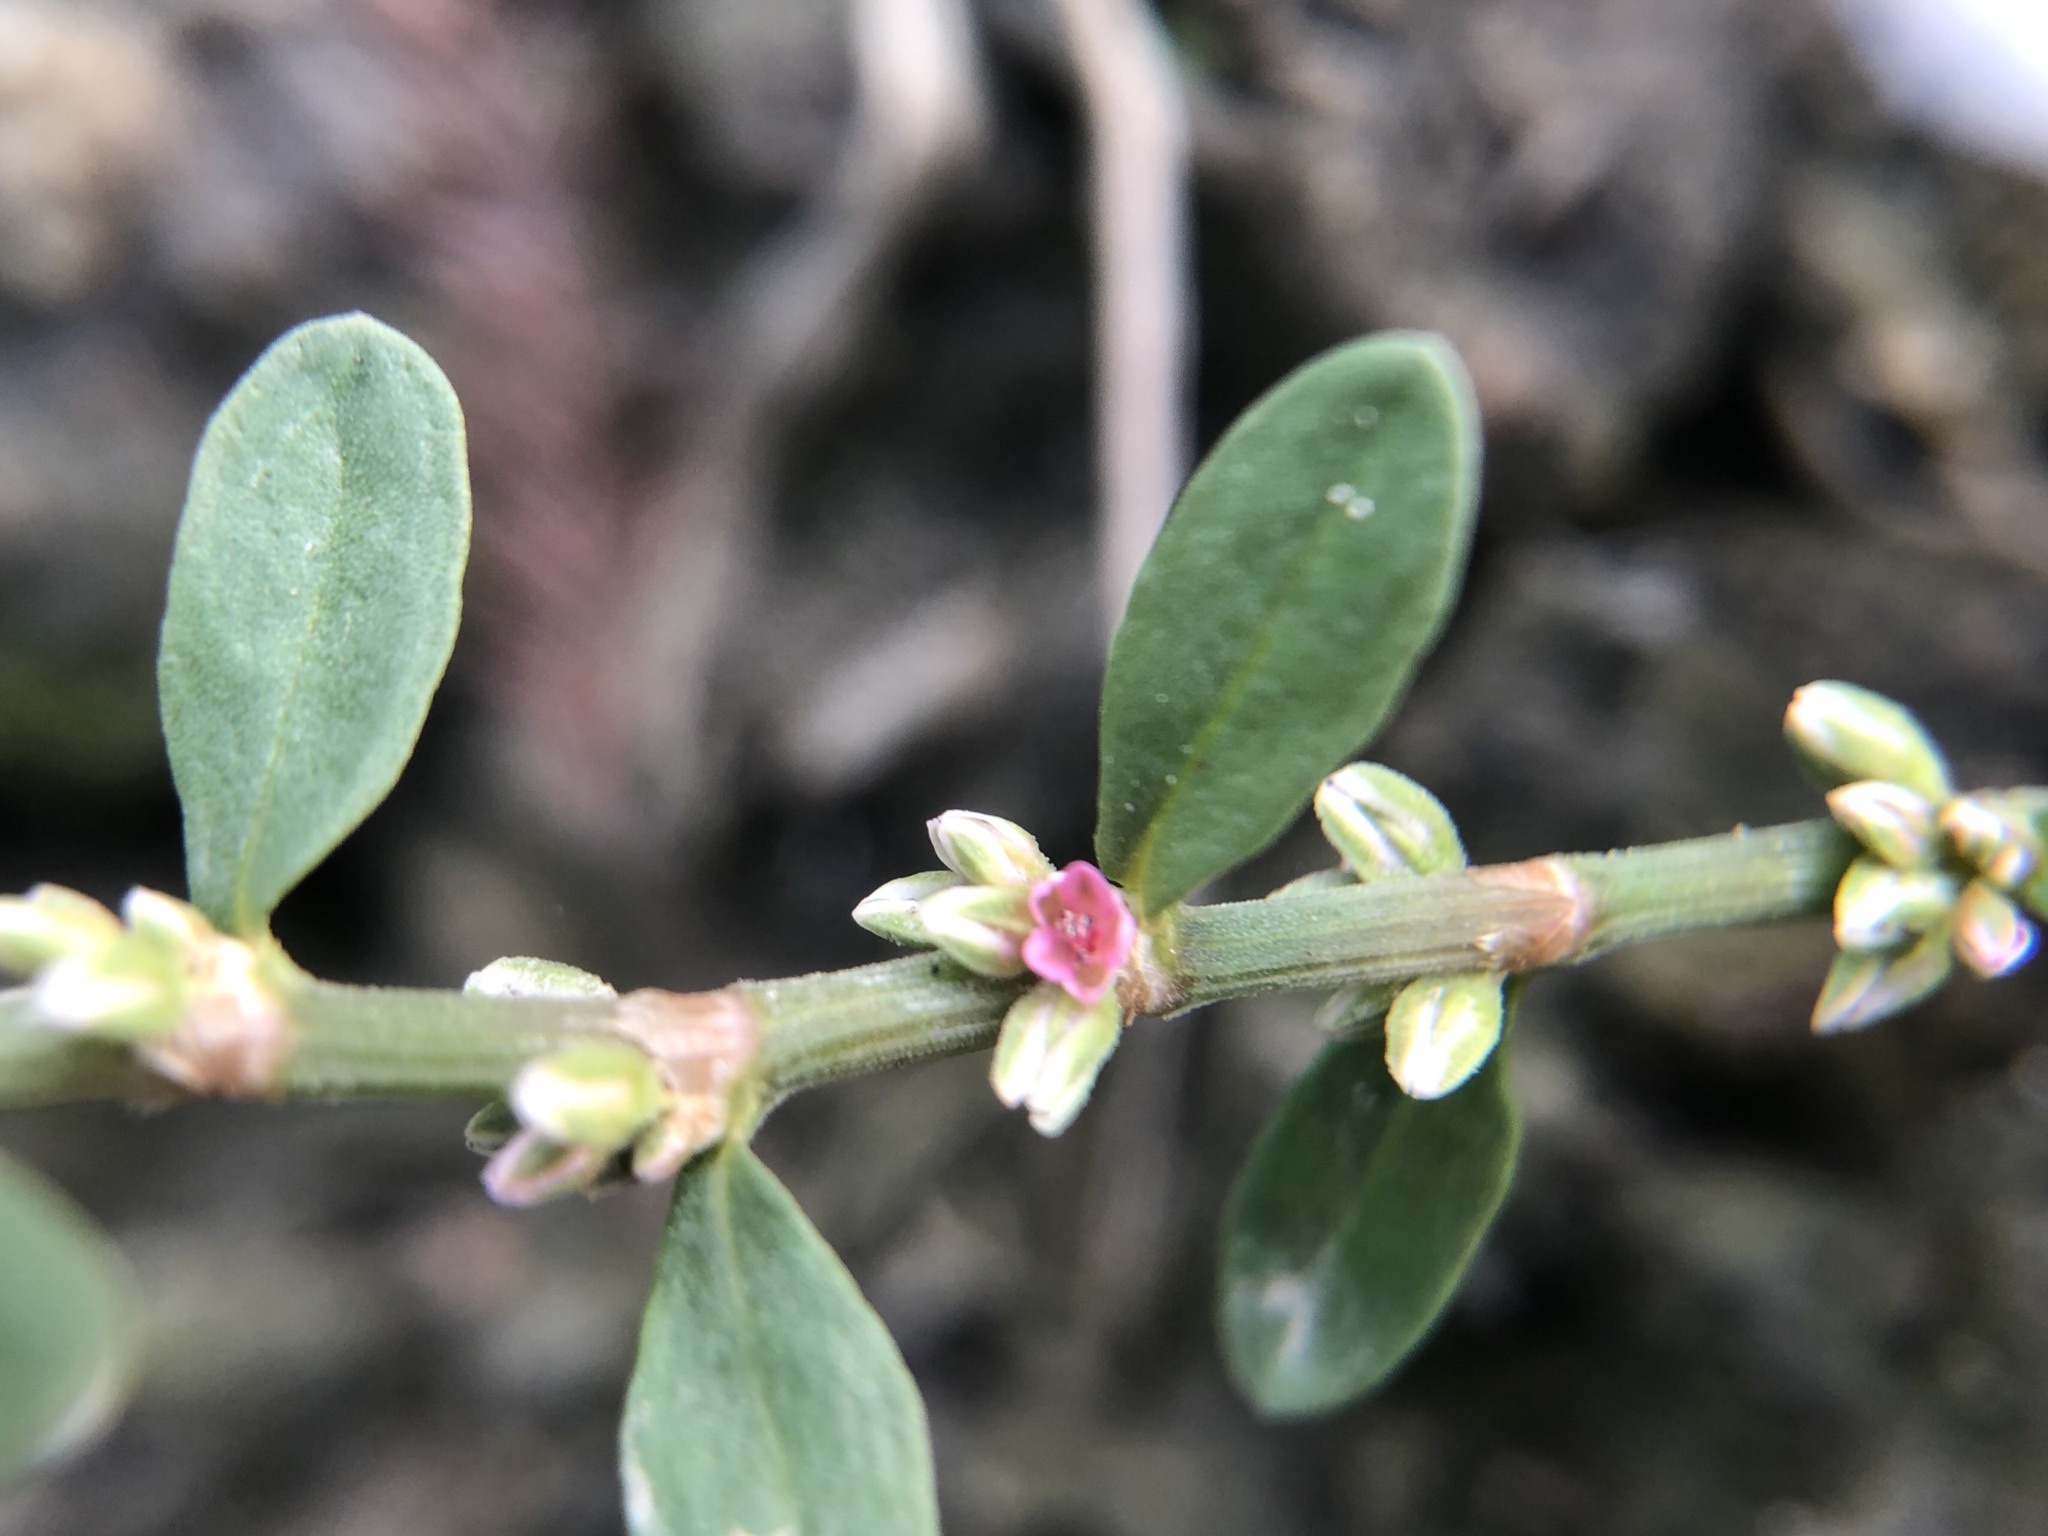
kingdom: Plantae
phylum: Tracheophyta
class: Magnoliopsida
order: Caryophyllales
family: Polygonaceae
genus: Polygonum
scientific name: Polygonum plebeium
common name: Common knotweed
